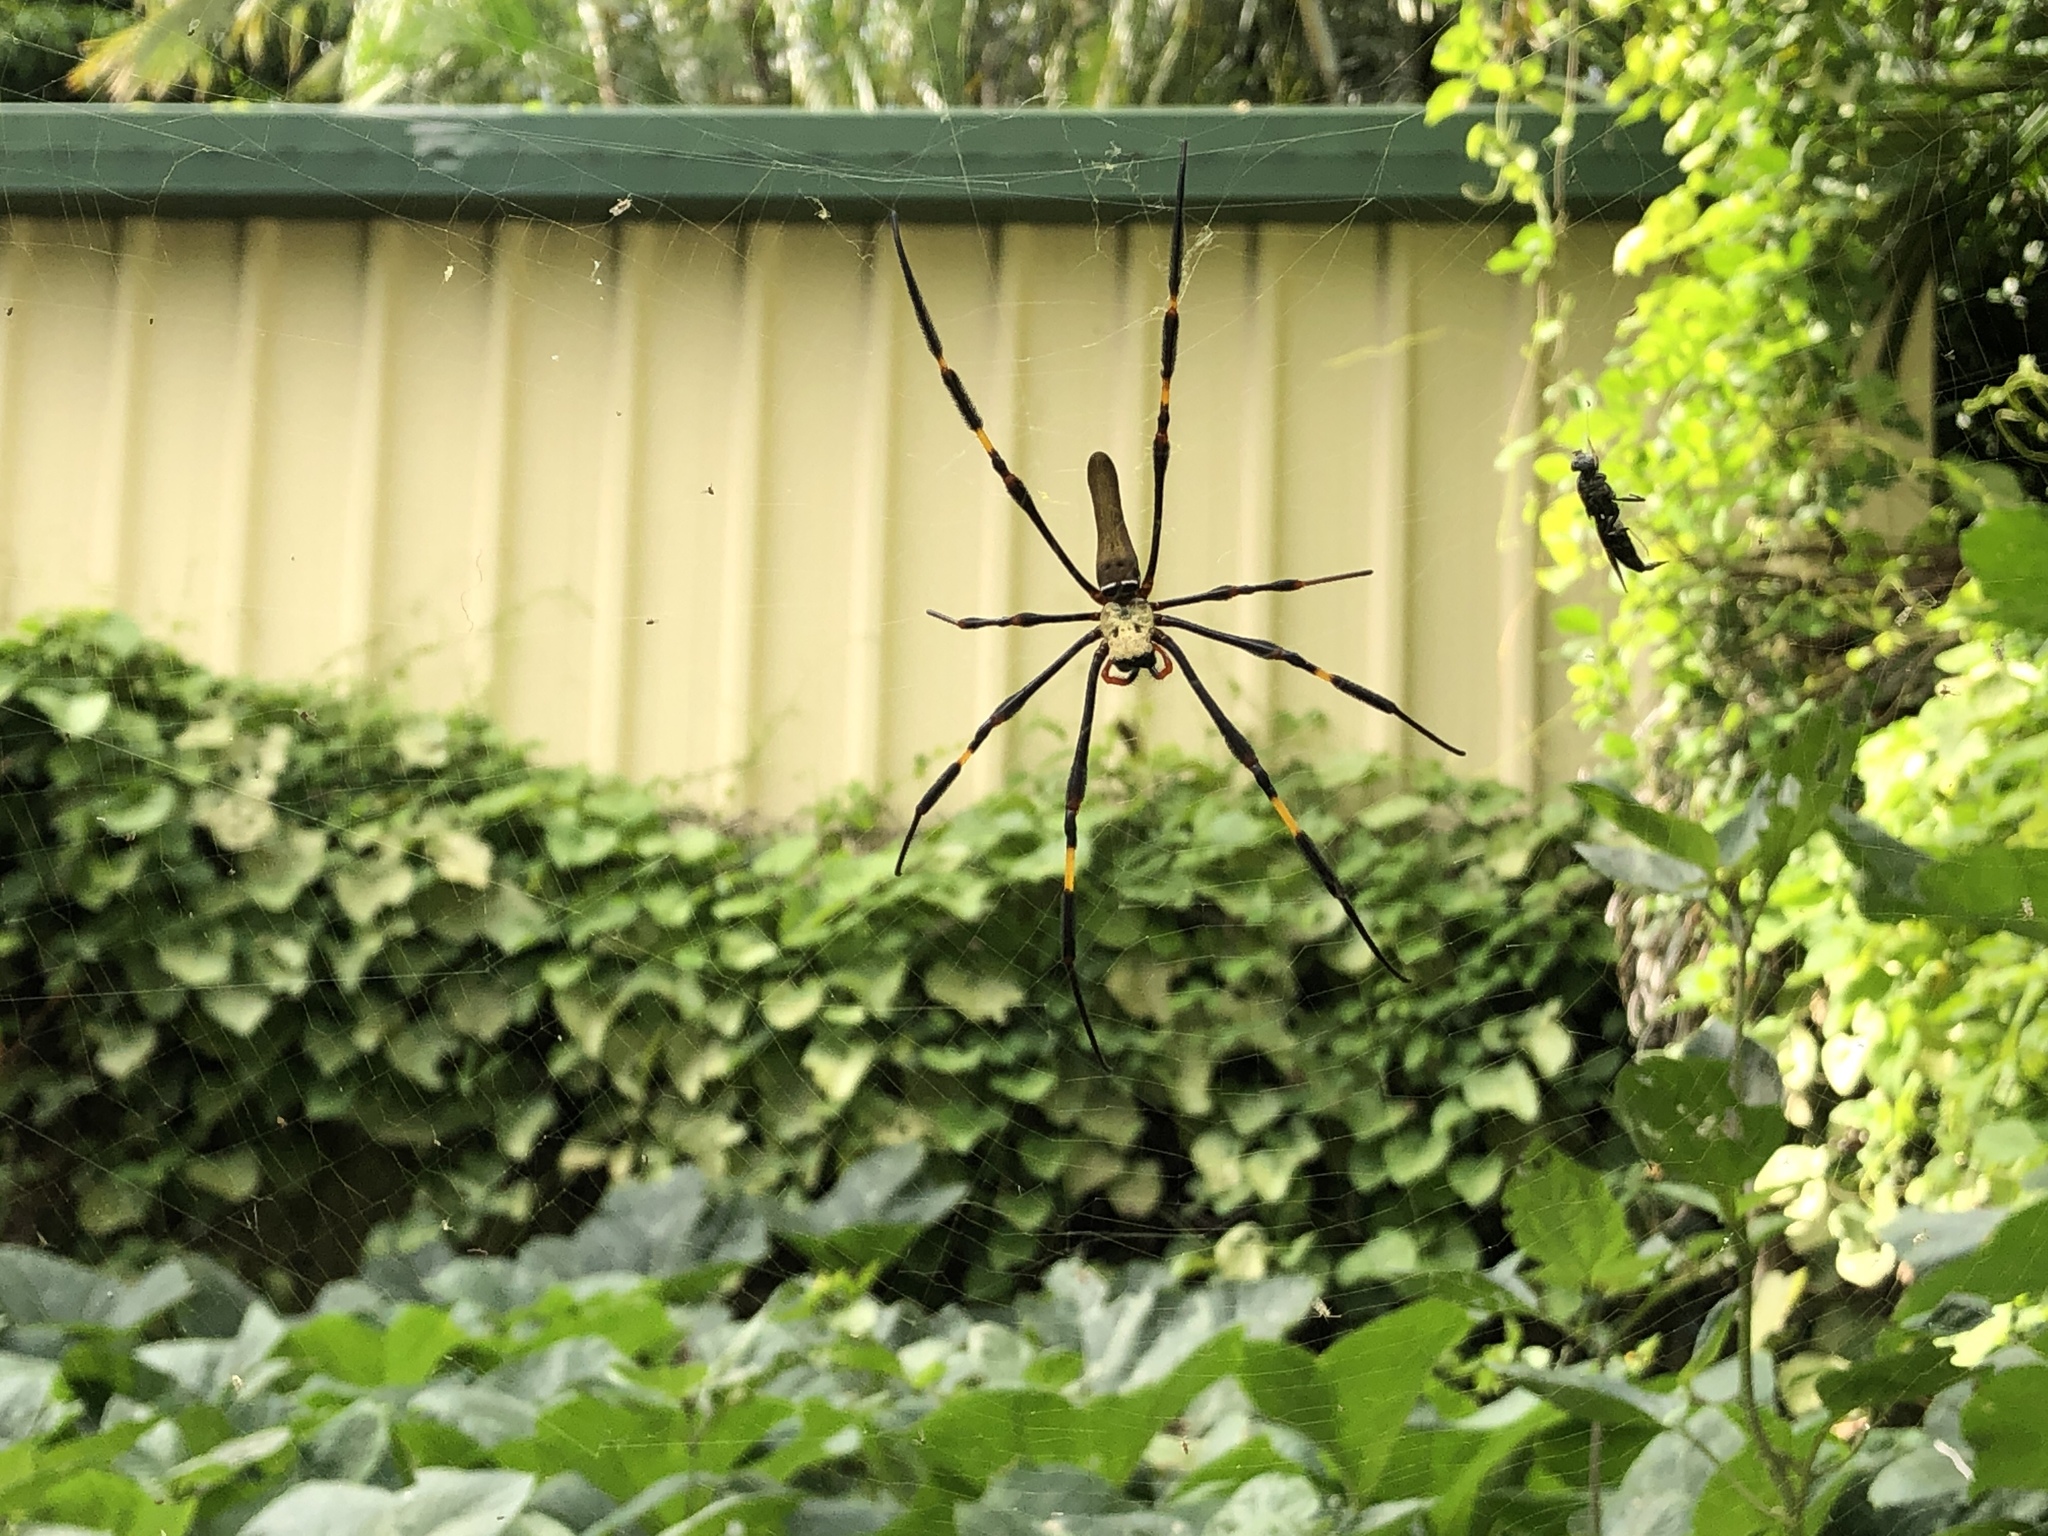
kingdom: Animalia
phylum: Arthropoda
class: Arachnida
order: Araneae
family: Araneidae
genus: Nephila
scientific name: Nephila pilipes
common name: Giant golden orb weaver
